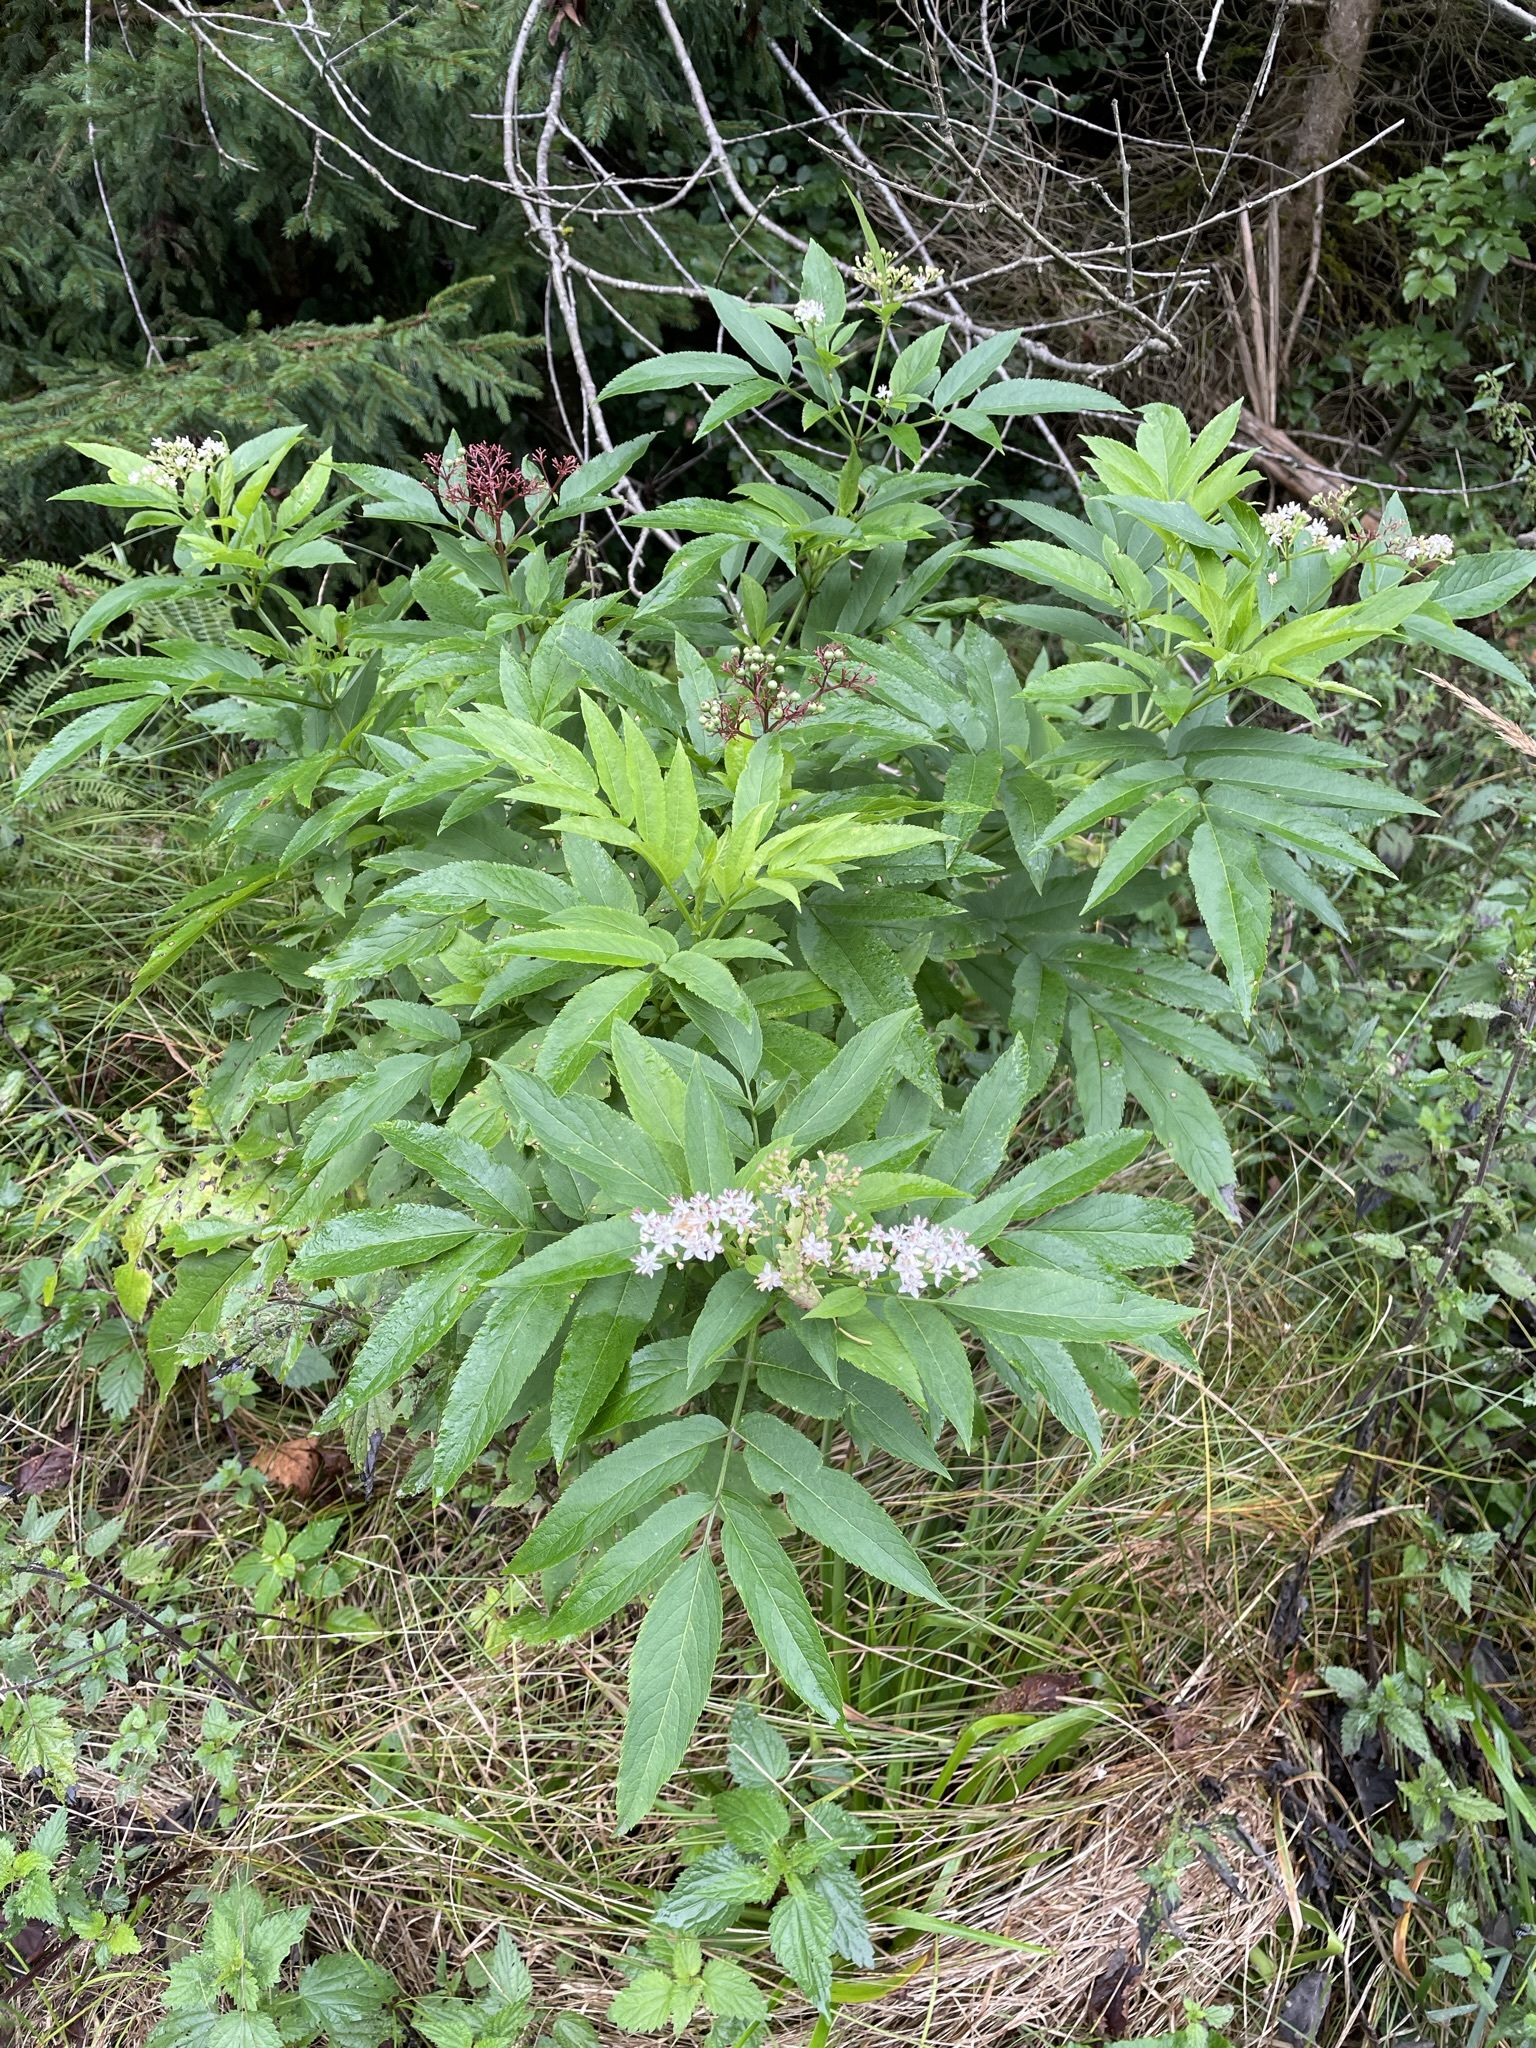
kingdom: Plantae
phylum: Tracheophyta
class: Magnoliopsida
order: Dipsacales
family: Viburnaceae
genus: Sambucus
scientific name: Sambucus ebulus
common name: Dwarf elder
